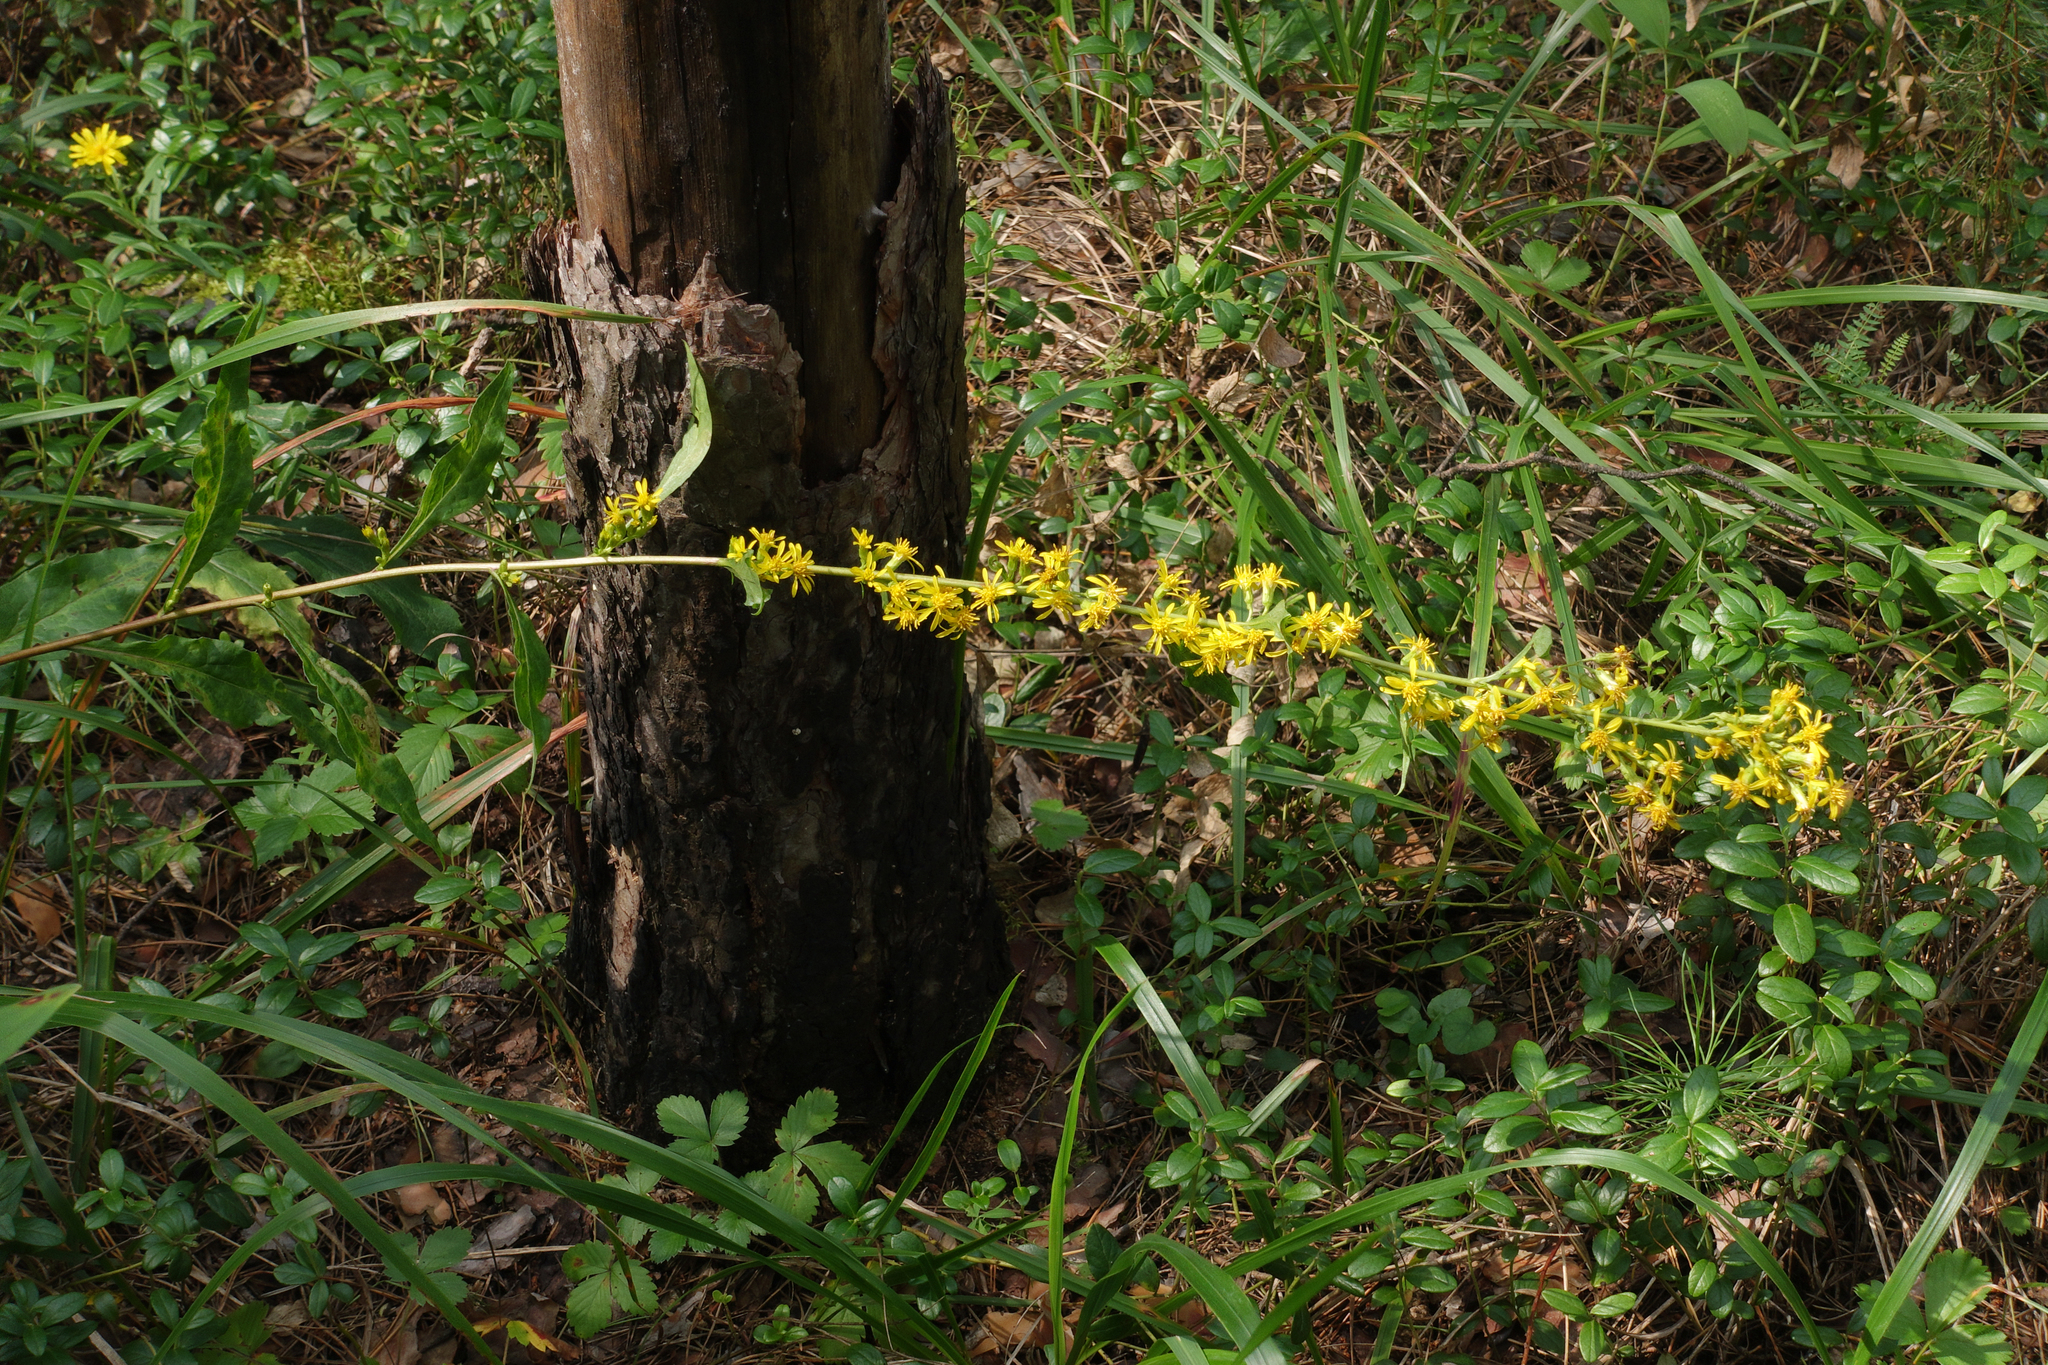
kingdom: Plantae
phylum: Tracheophyta
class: Magnoliopsida
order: Asterales
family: Asteraceae
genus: Solidago
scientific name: Solidago virgaurea
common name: Goldenrod
